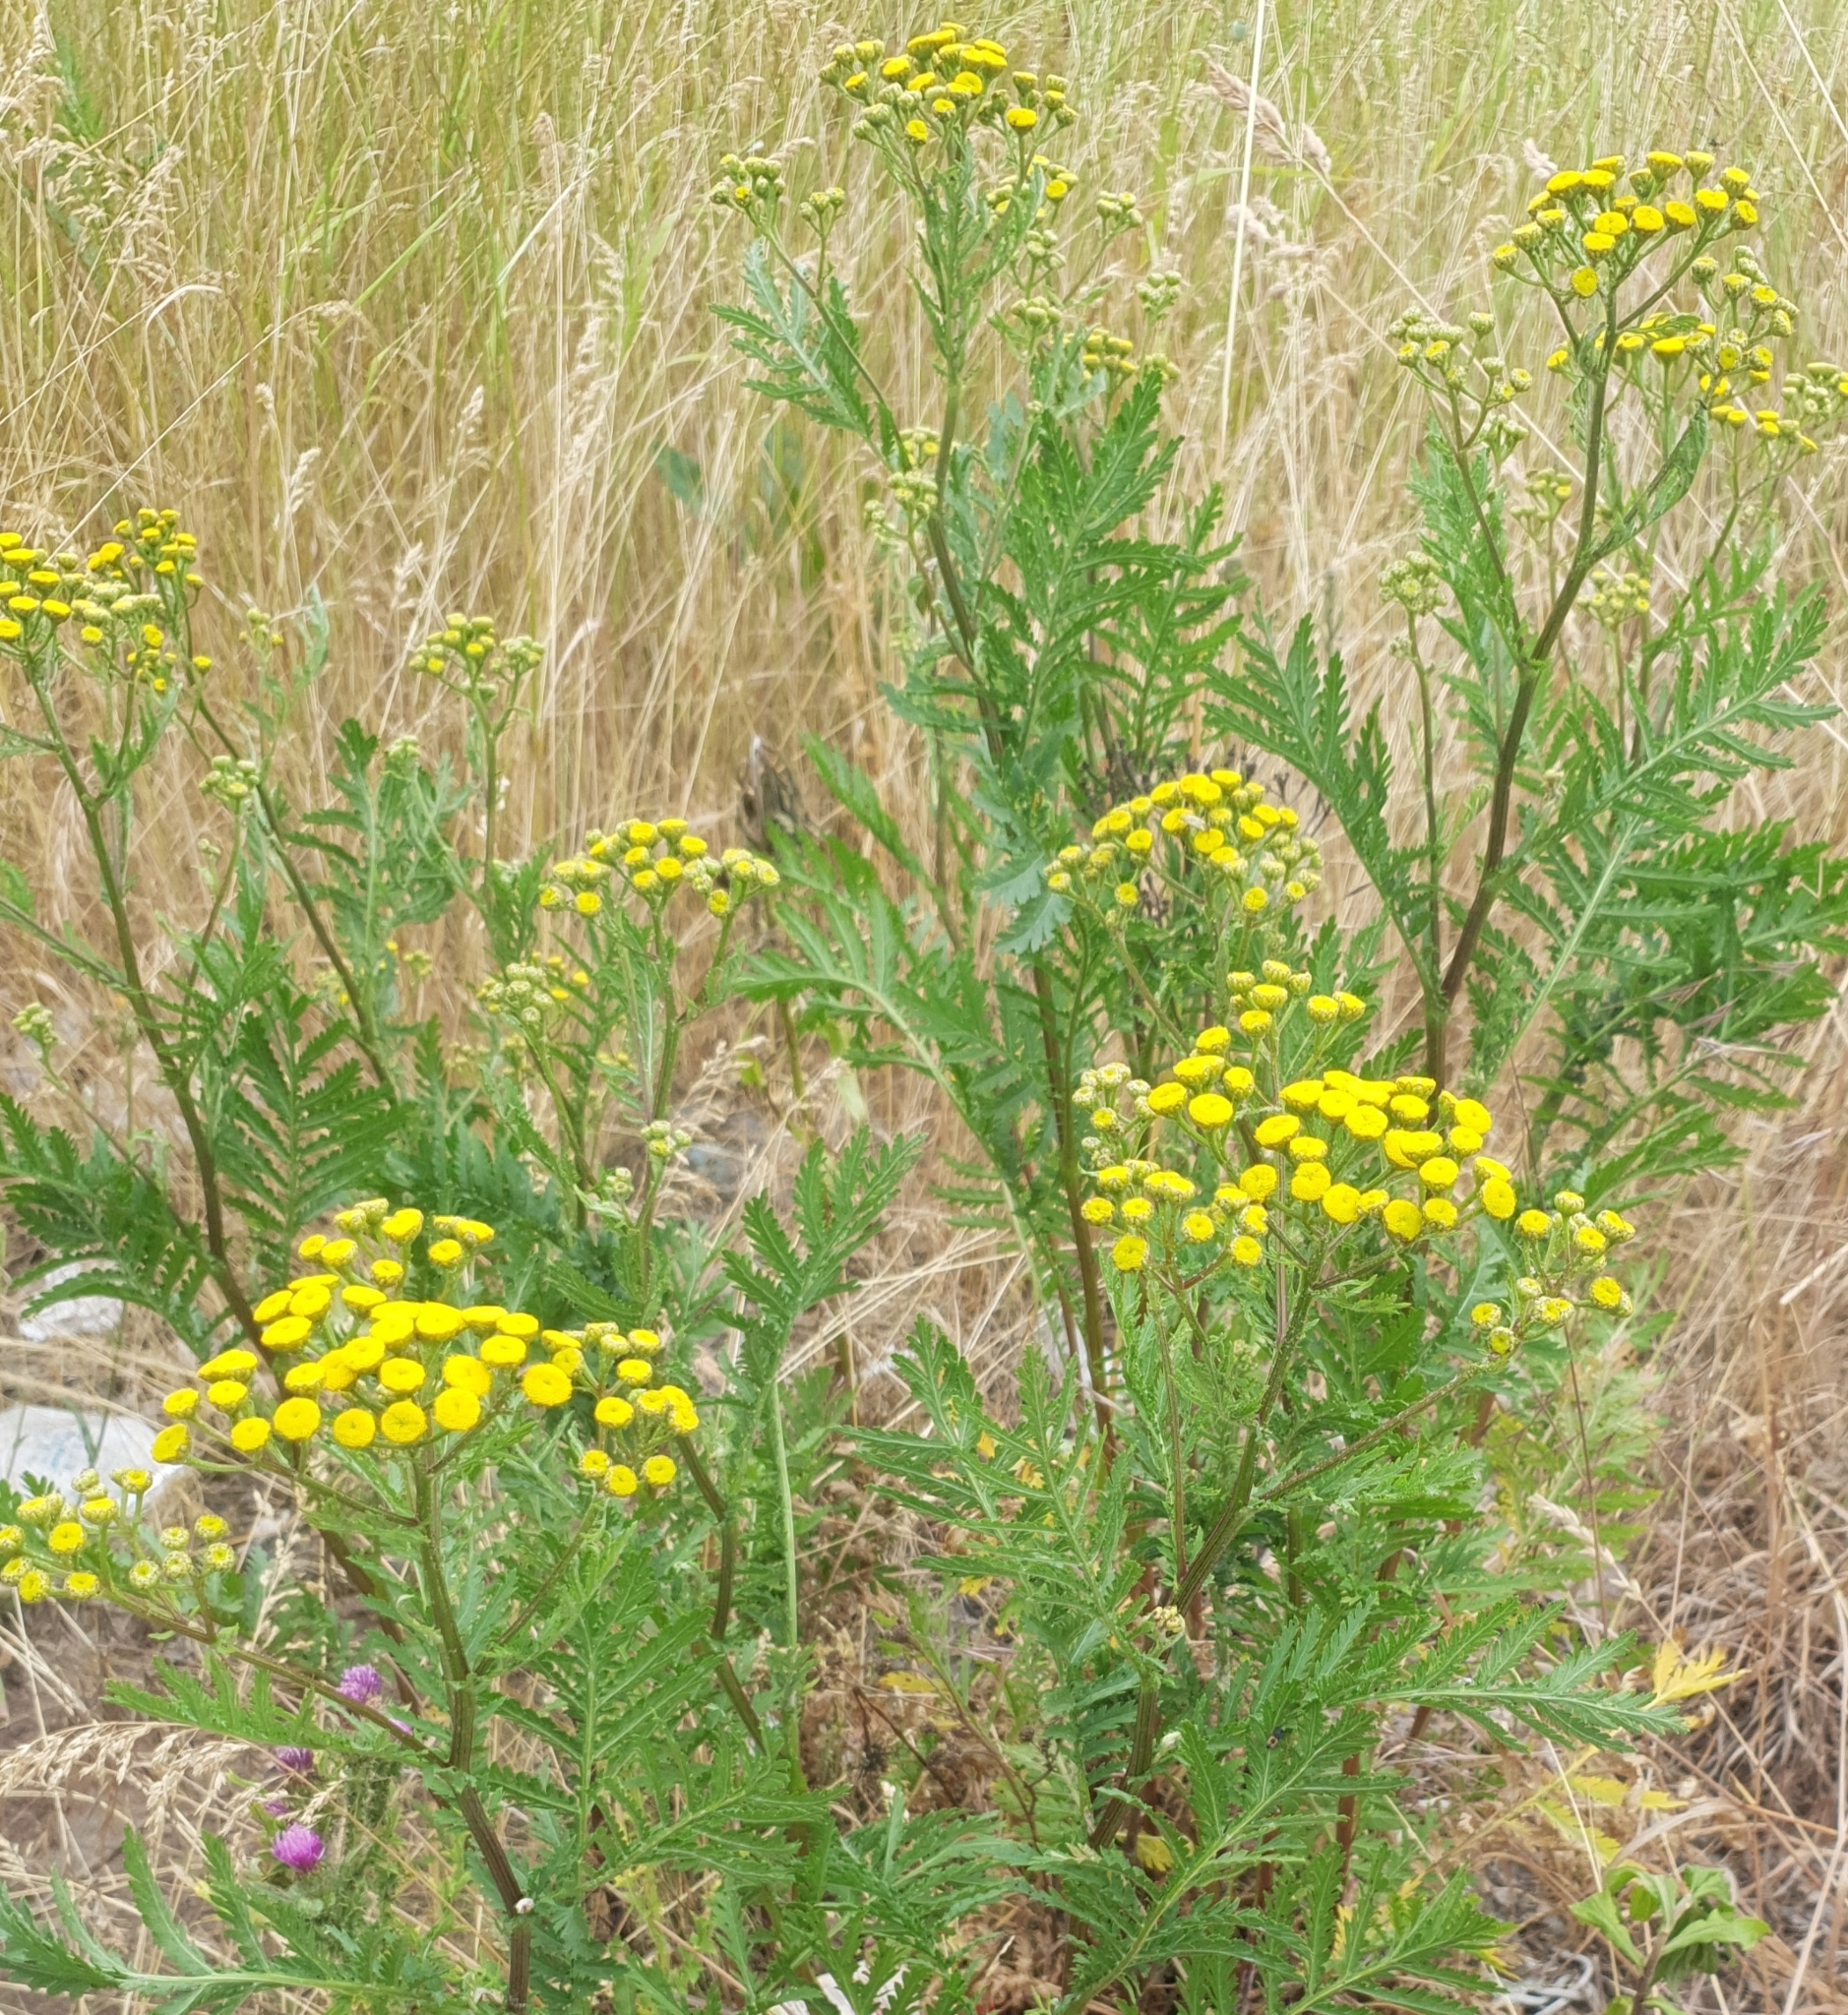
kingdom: Plantae
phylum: Tracheophyta
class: Magnoliopsida
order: Asterales
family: Asteraceae
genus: Tanacetum
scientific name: Tanacetum vulgare
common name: Common tansy
